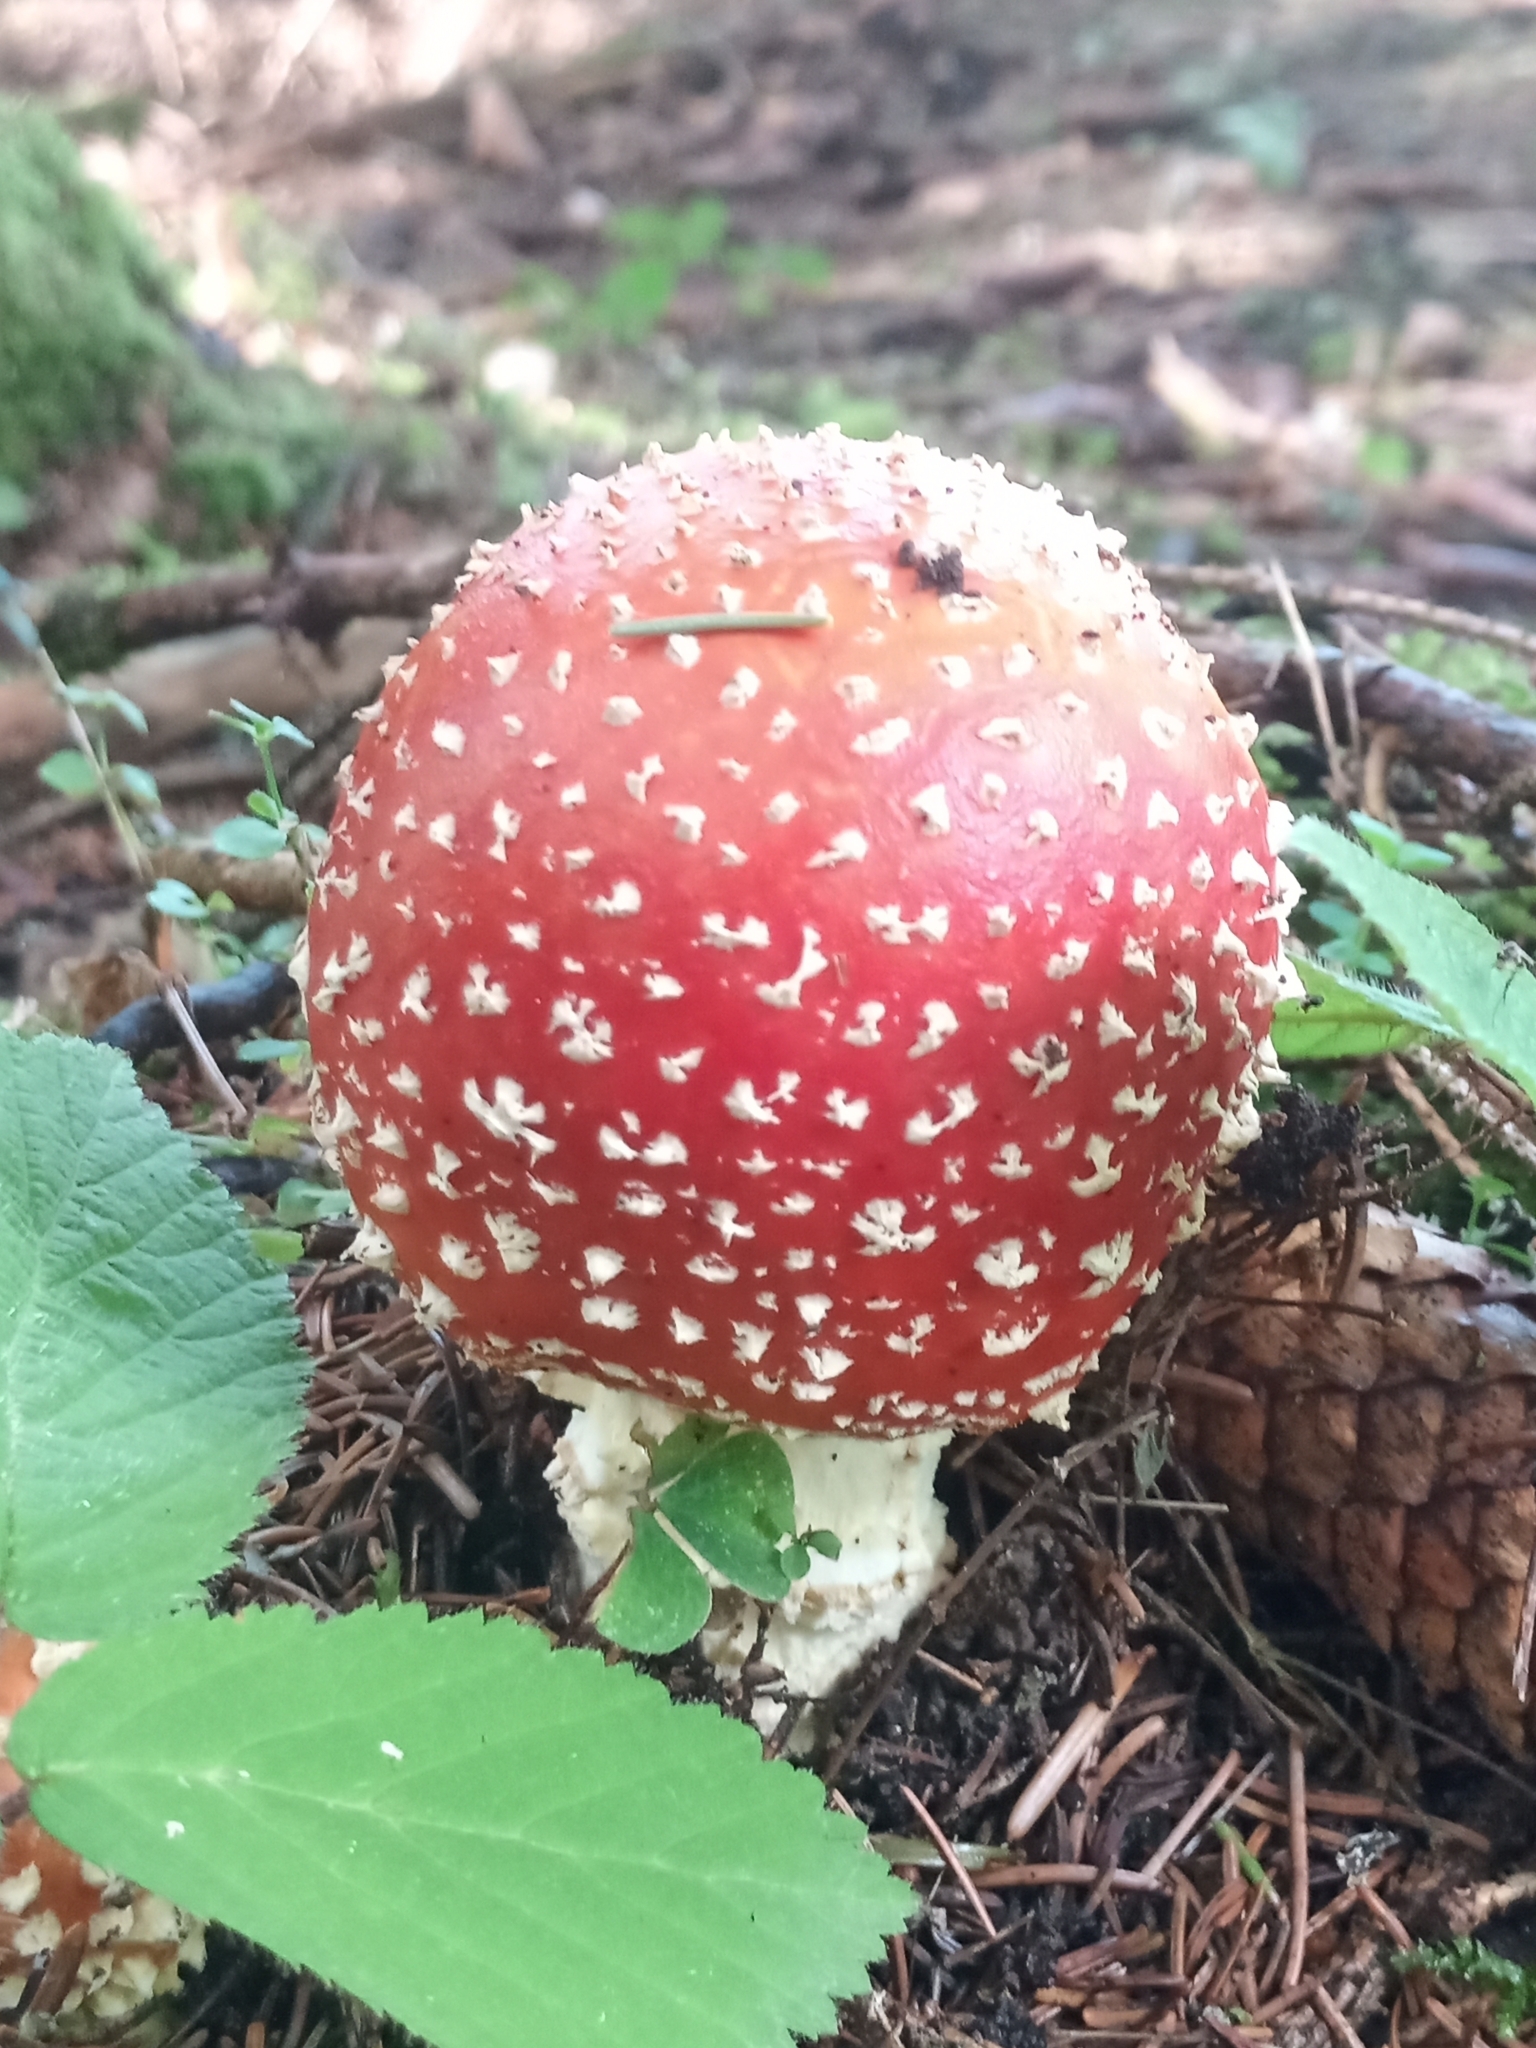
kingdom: Fungi
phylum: Basidiomycota
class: Agaricomycetes
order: Agaricales
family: Amanitaceae
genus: Amanita
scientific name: Amanita muscaria
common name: Fly agaric
